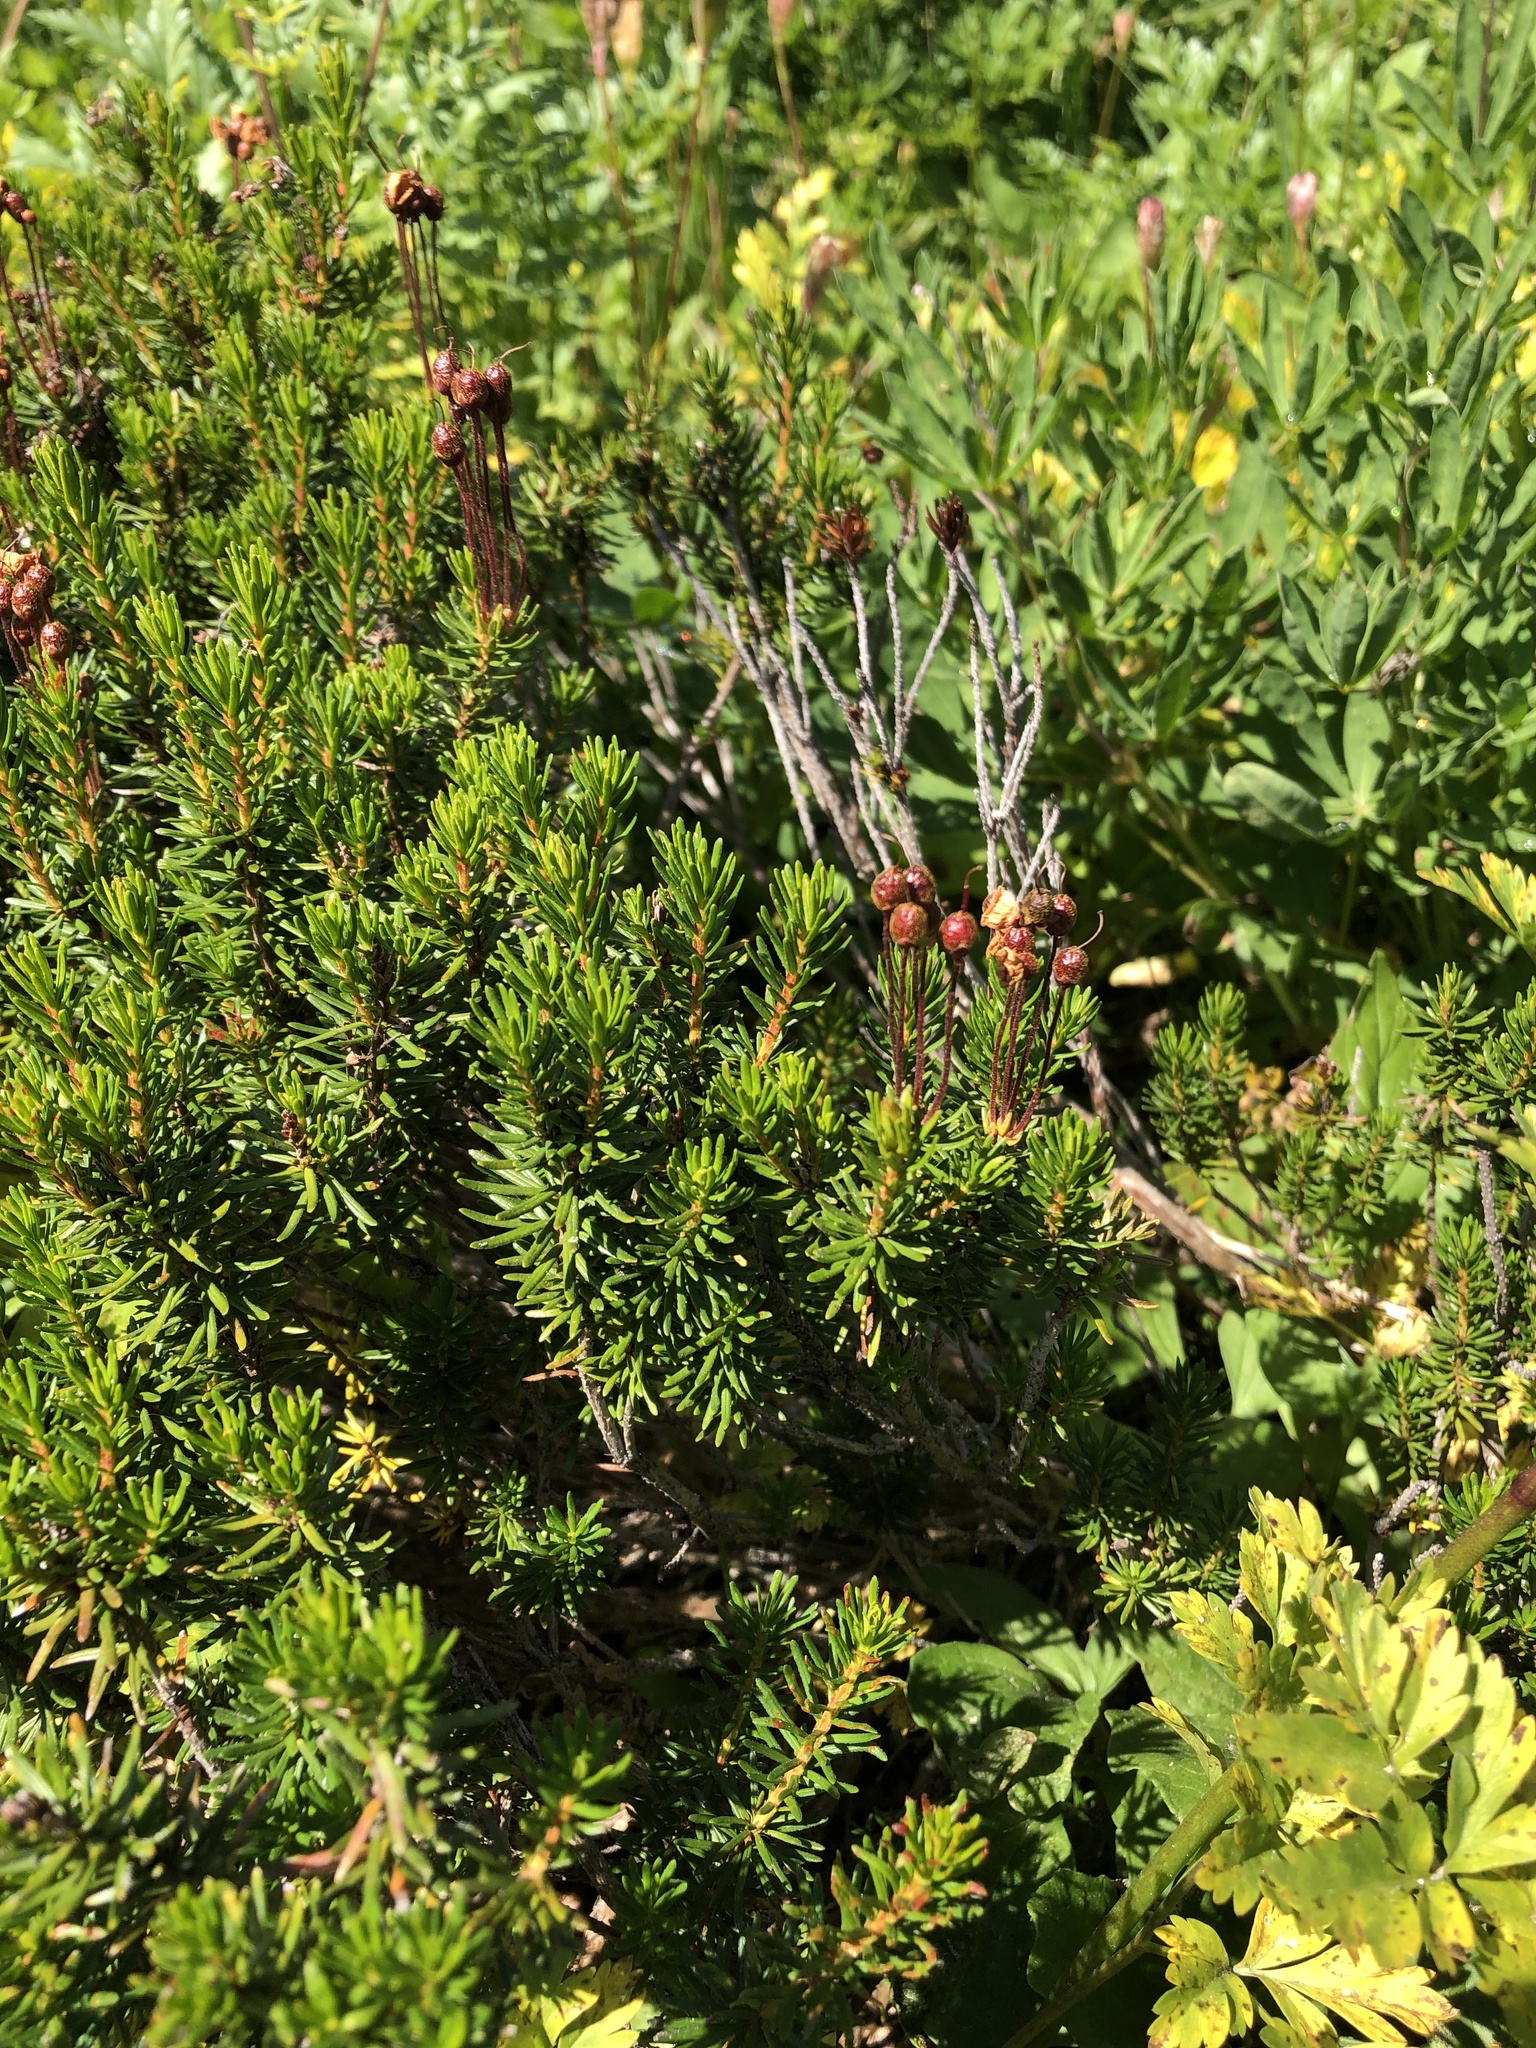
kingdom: Plantae
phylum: Tracheophyta
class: Magnoliopsida
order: Ericales
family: Ericaceae
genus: Phyllodoce
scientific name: Phyllodoce empetriformis
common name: Pink mountain heather
